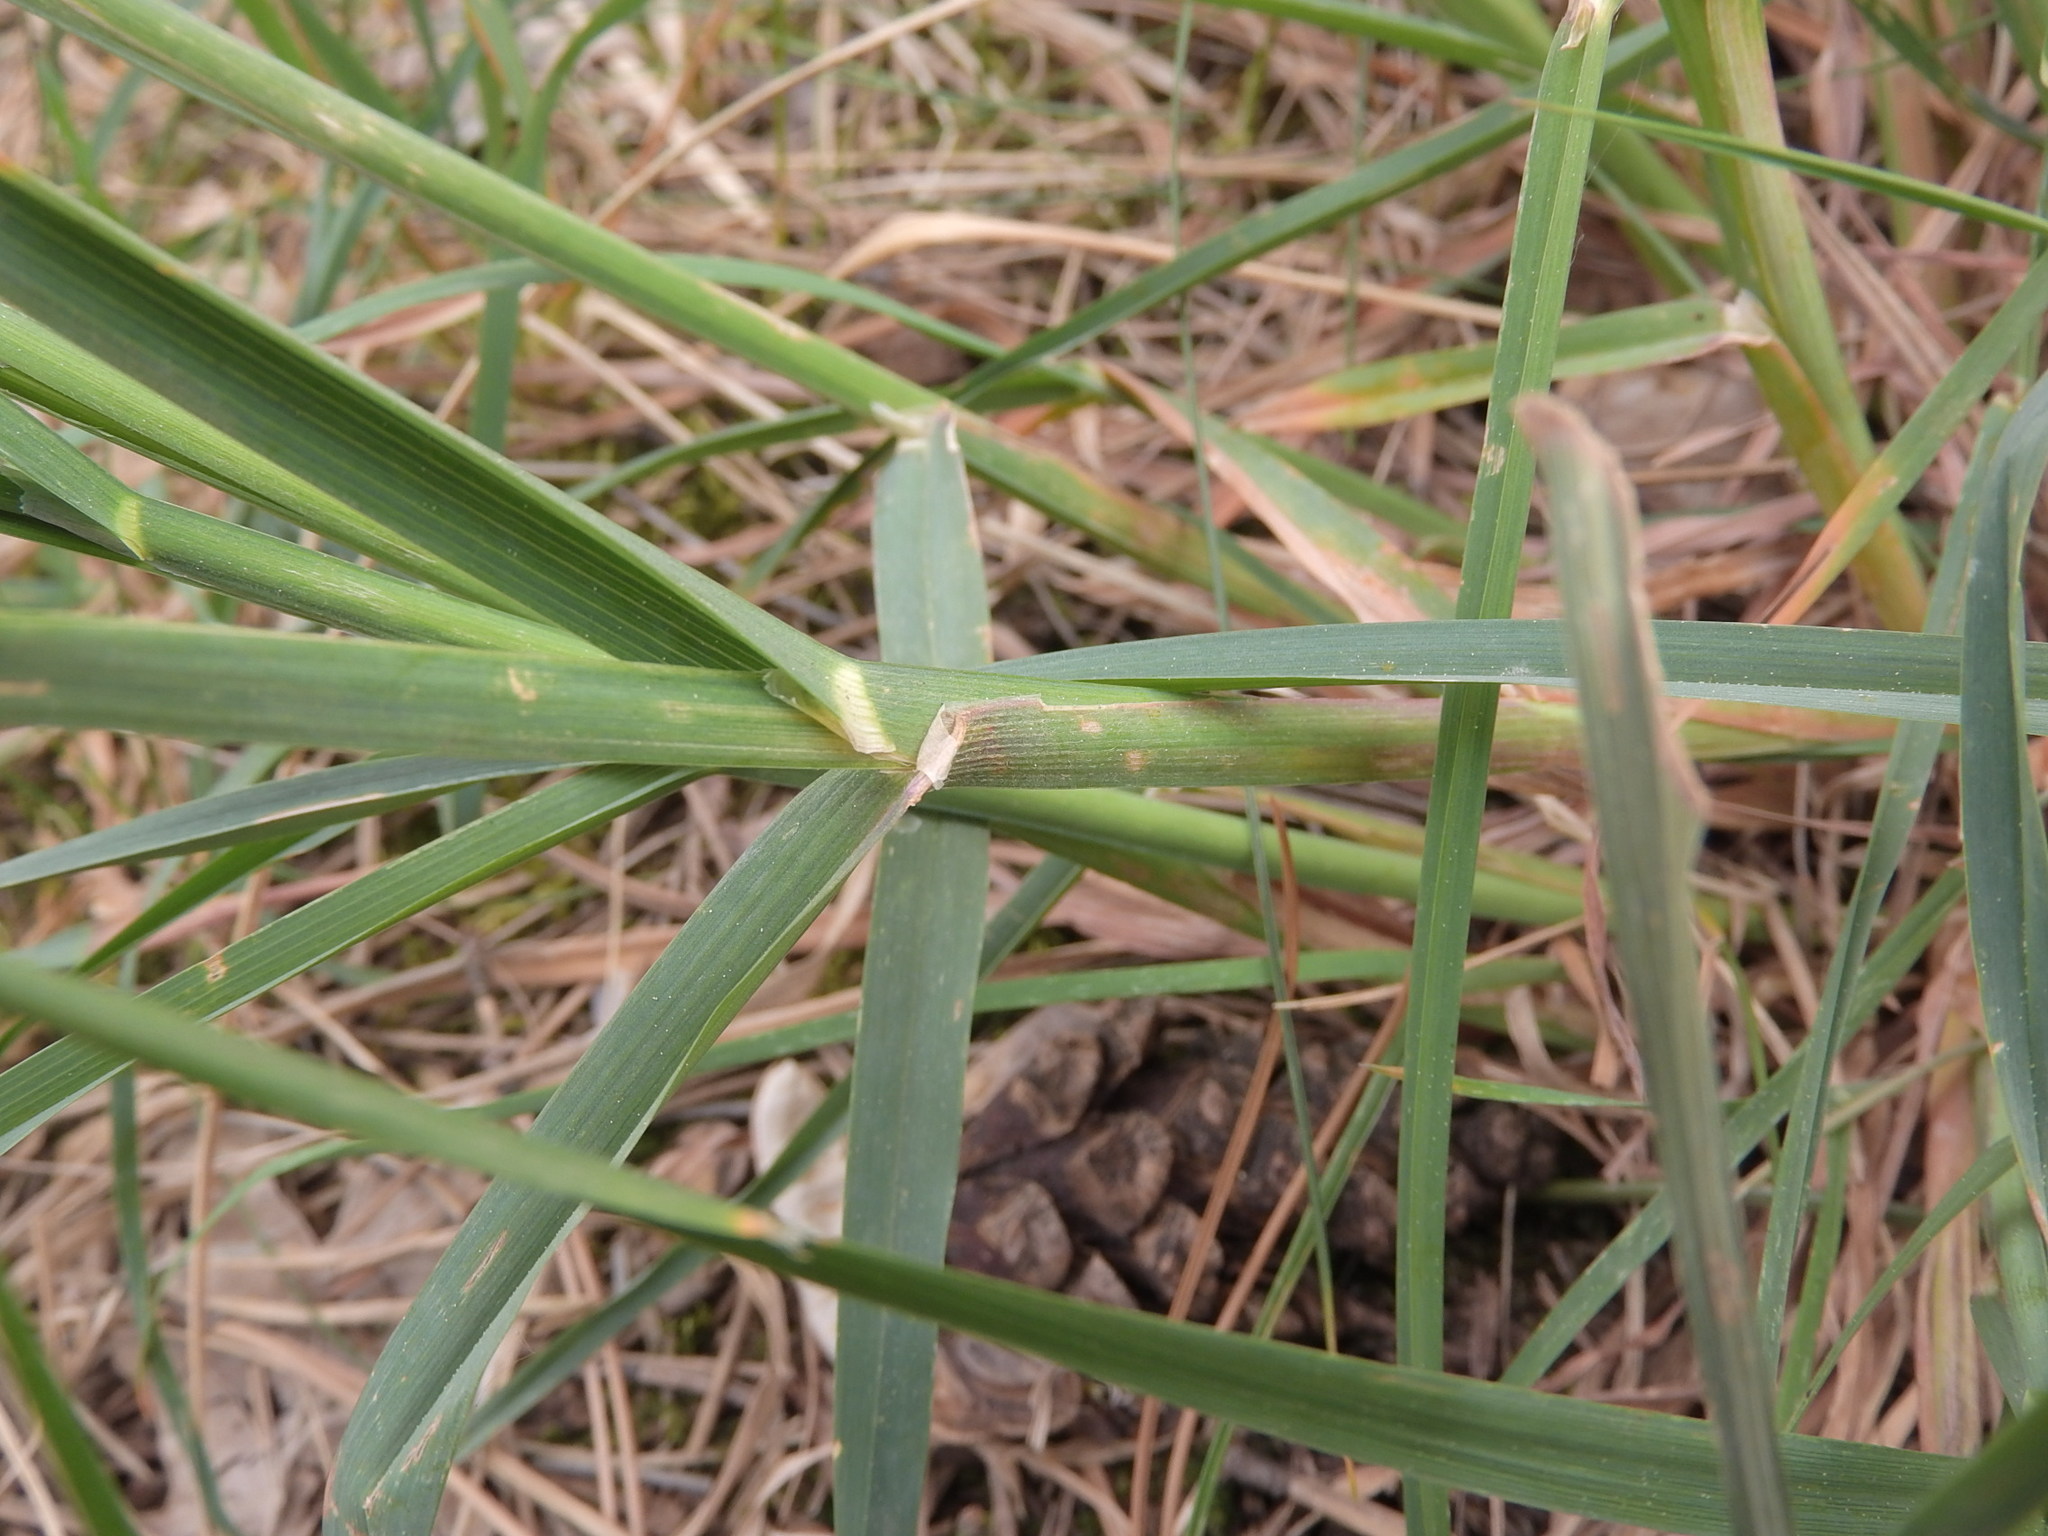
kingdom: Plantae
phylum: Tracheophyta
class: Liliopsida
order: Poales
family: Poaceae
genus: Dactylis
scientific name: Dactylis glomerata
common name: Orchardgrass
